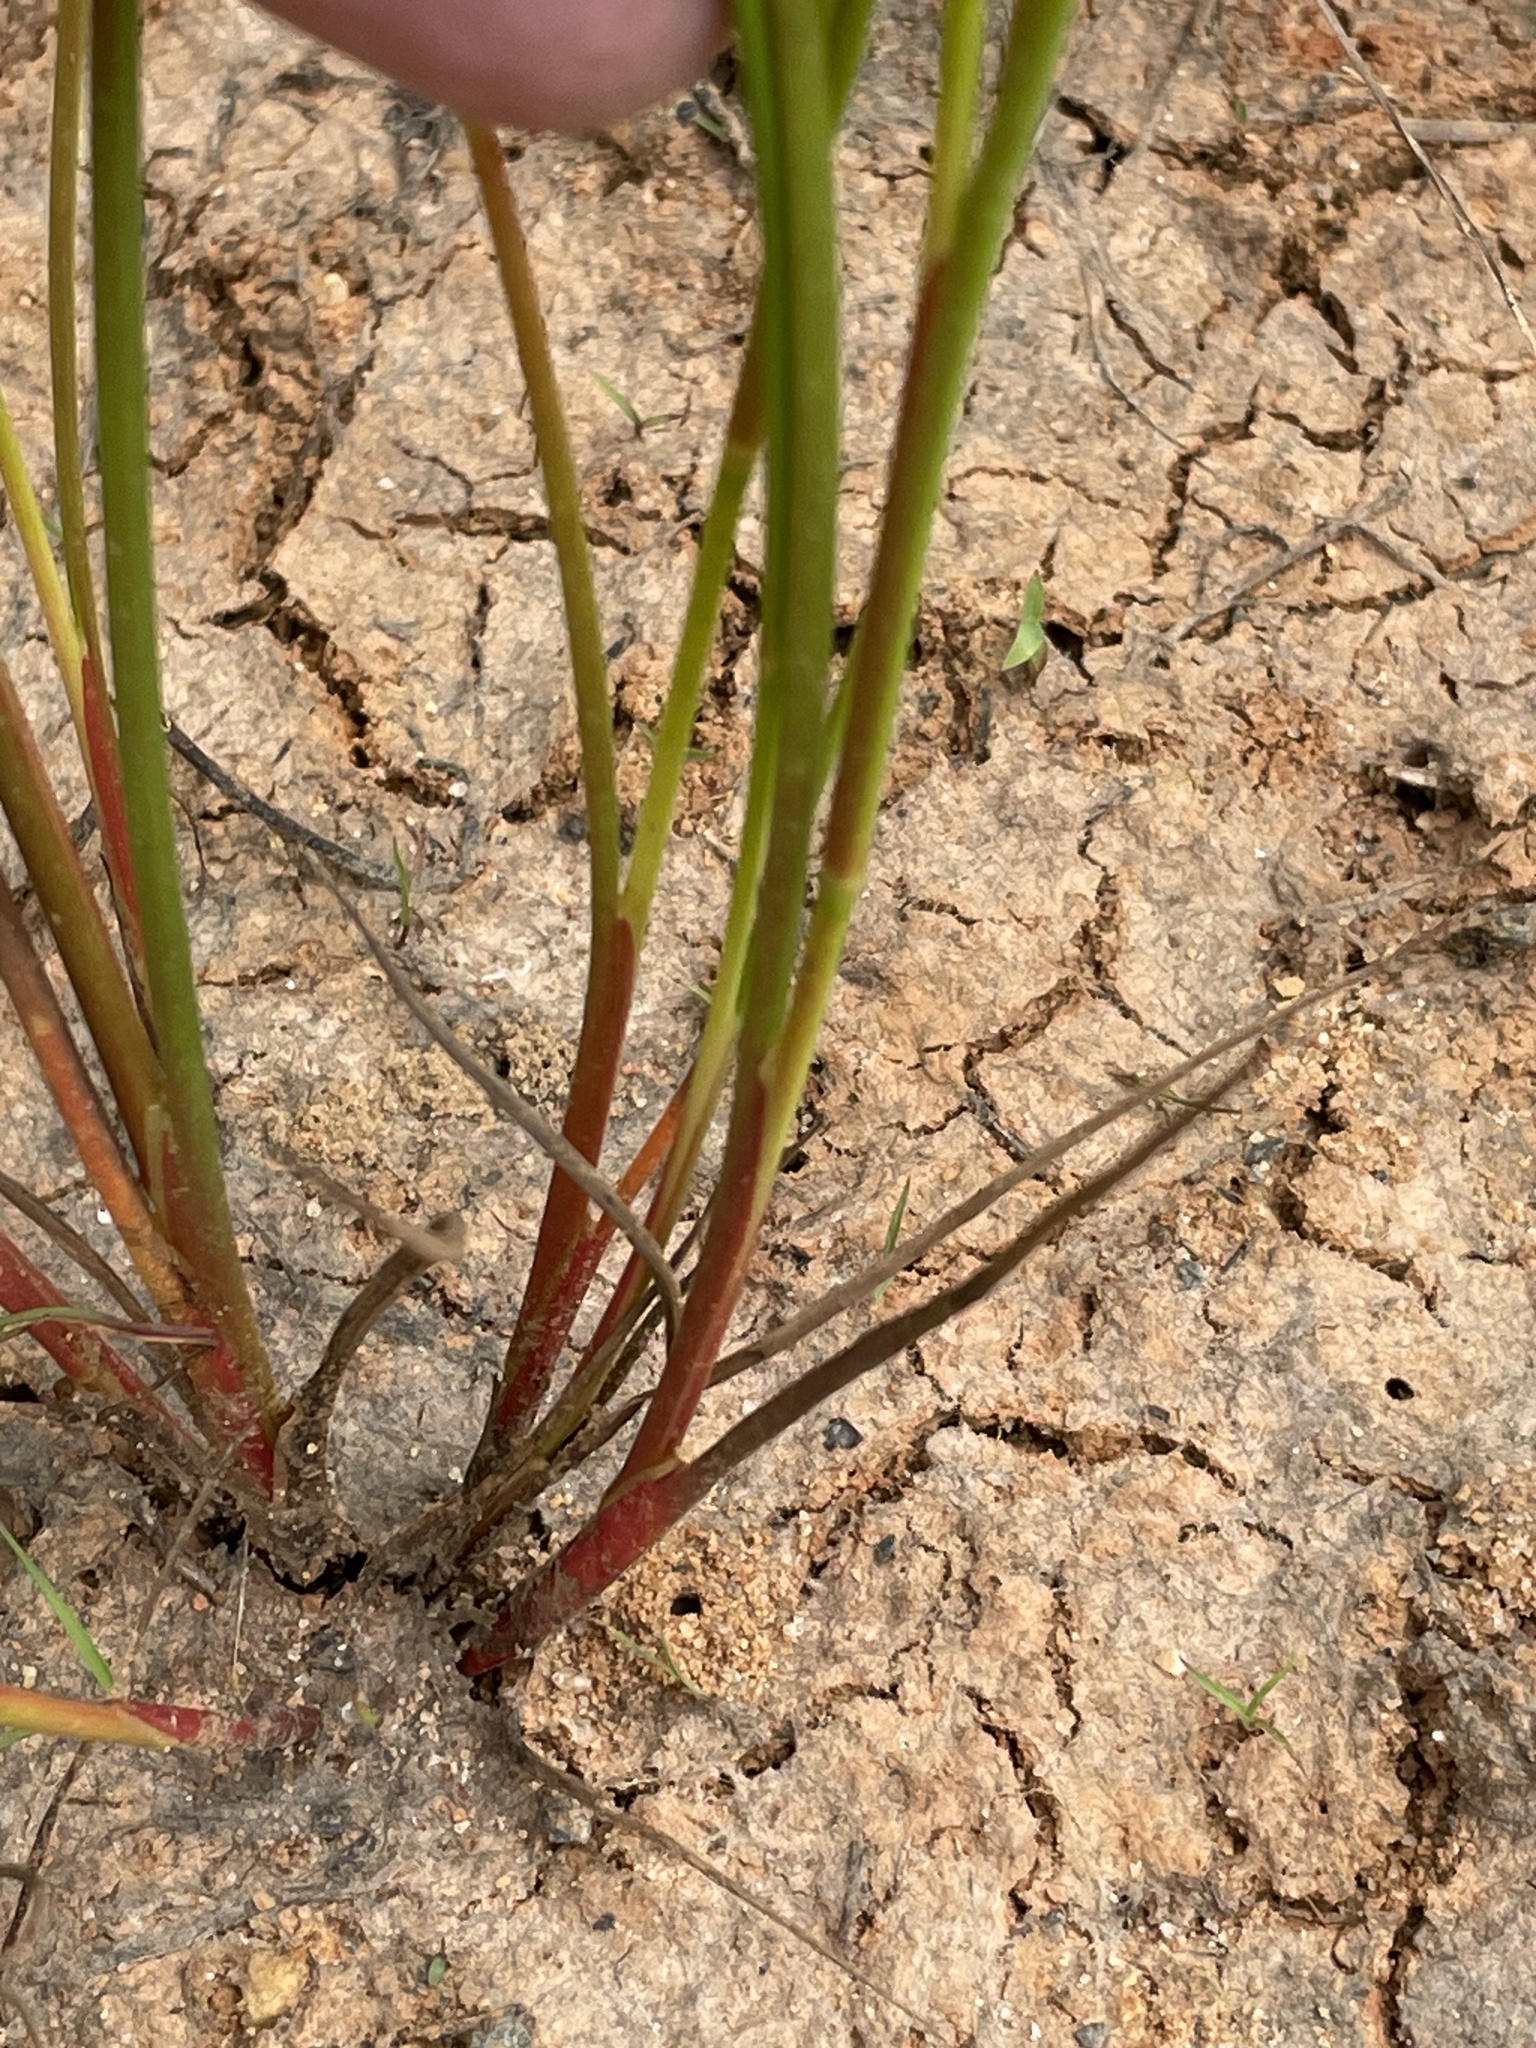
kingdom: Plantae
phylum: Tracheophyta
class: Liliopsida
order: Poales
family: Juncaceae
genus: Juncus
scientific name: Juncus diffusissimus
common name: Slimpod rush
